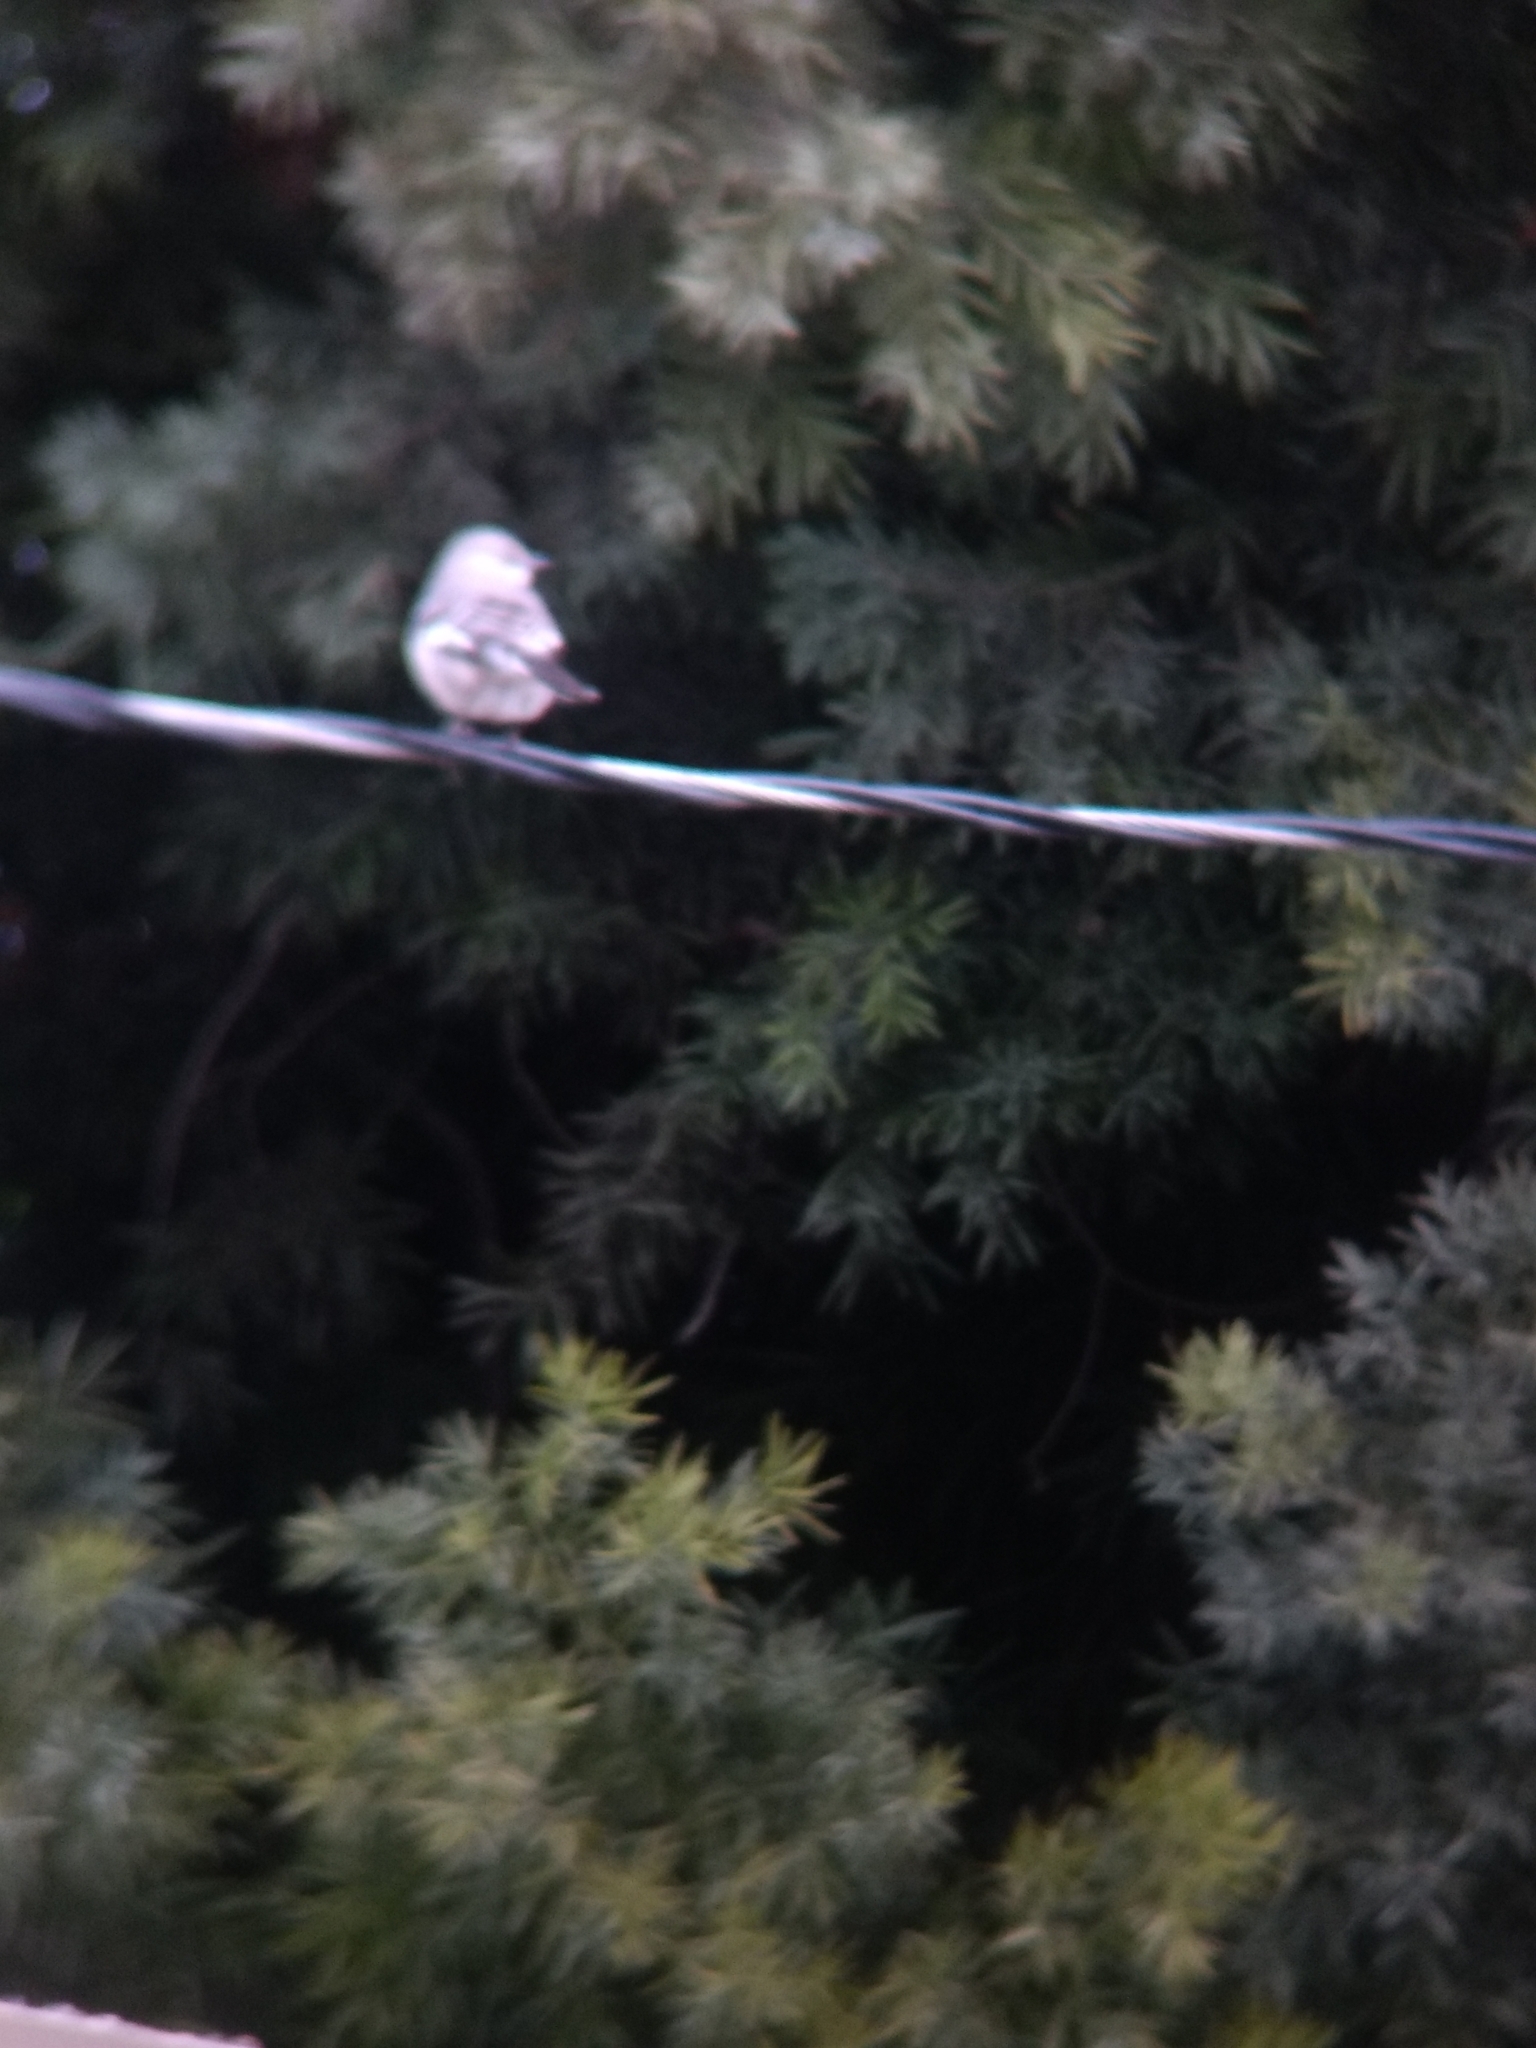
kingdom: Animalia
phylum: Chordata
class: Aves
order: Passeriformes
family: Mimidae
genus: Mimus
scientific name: Mimus polyglottos
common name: Northern mockingbird
